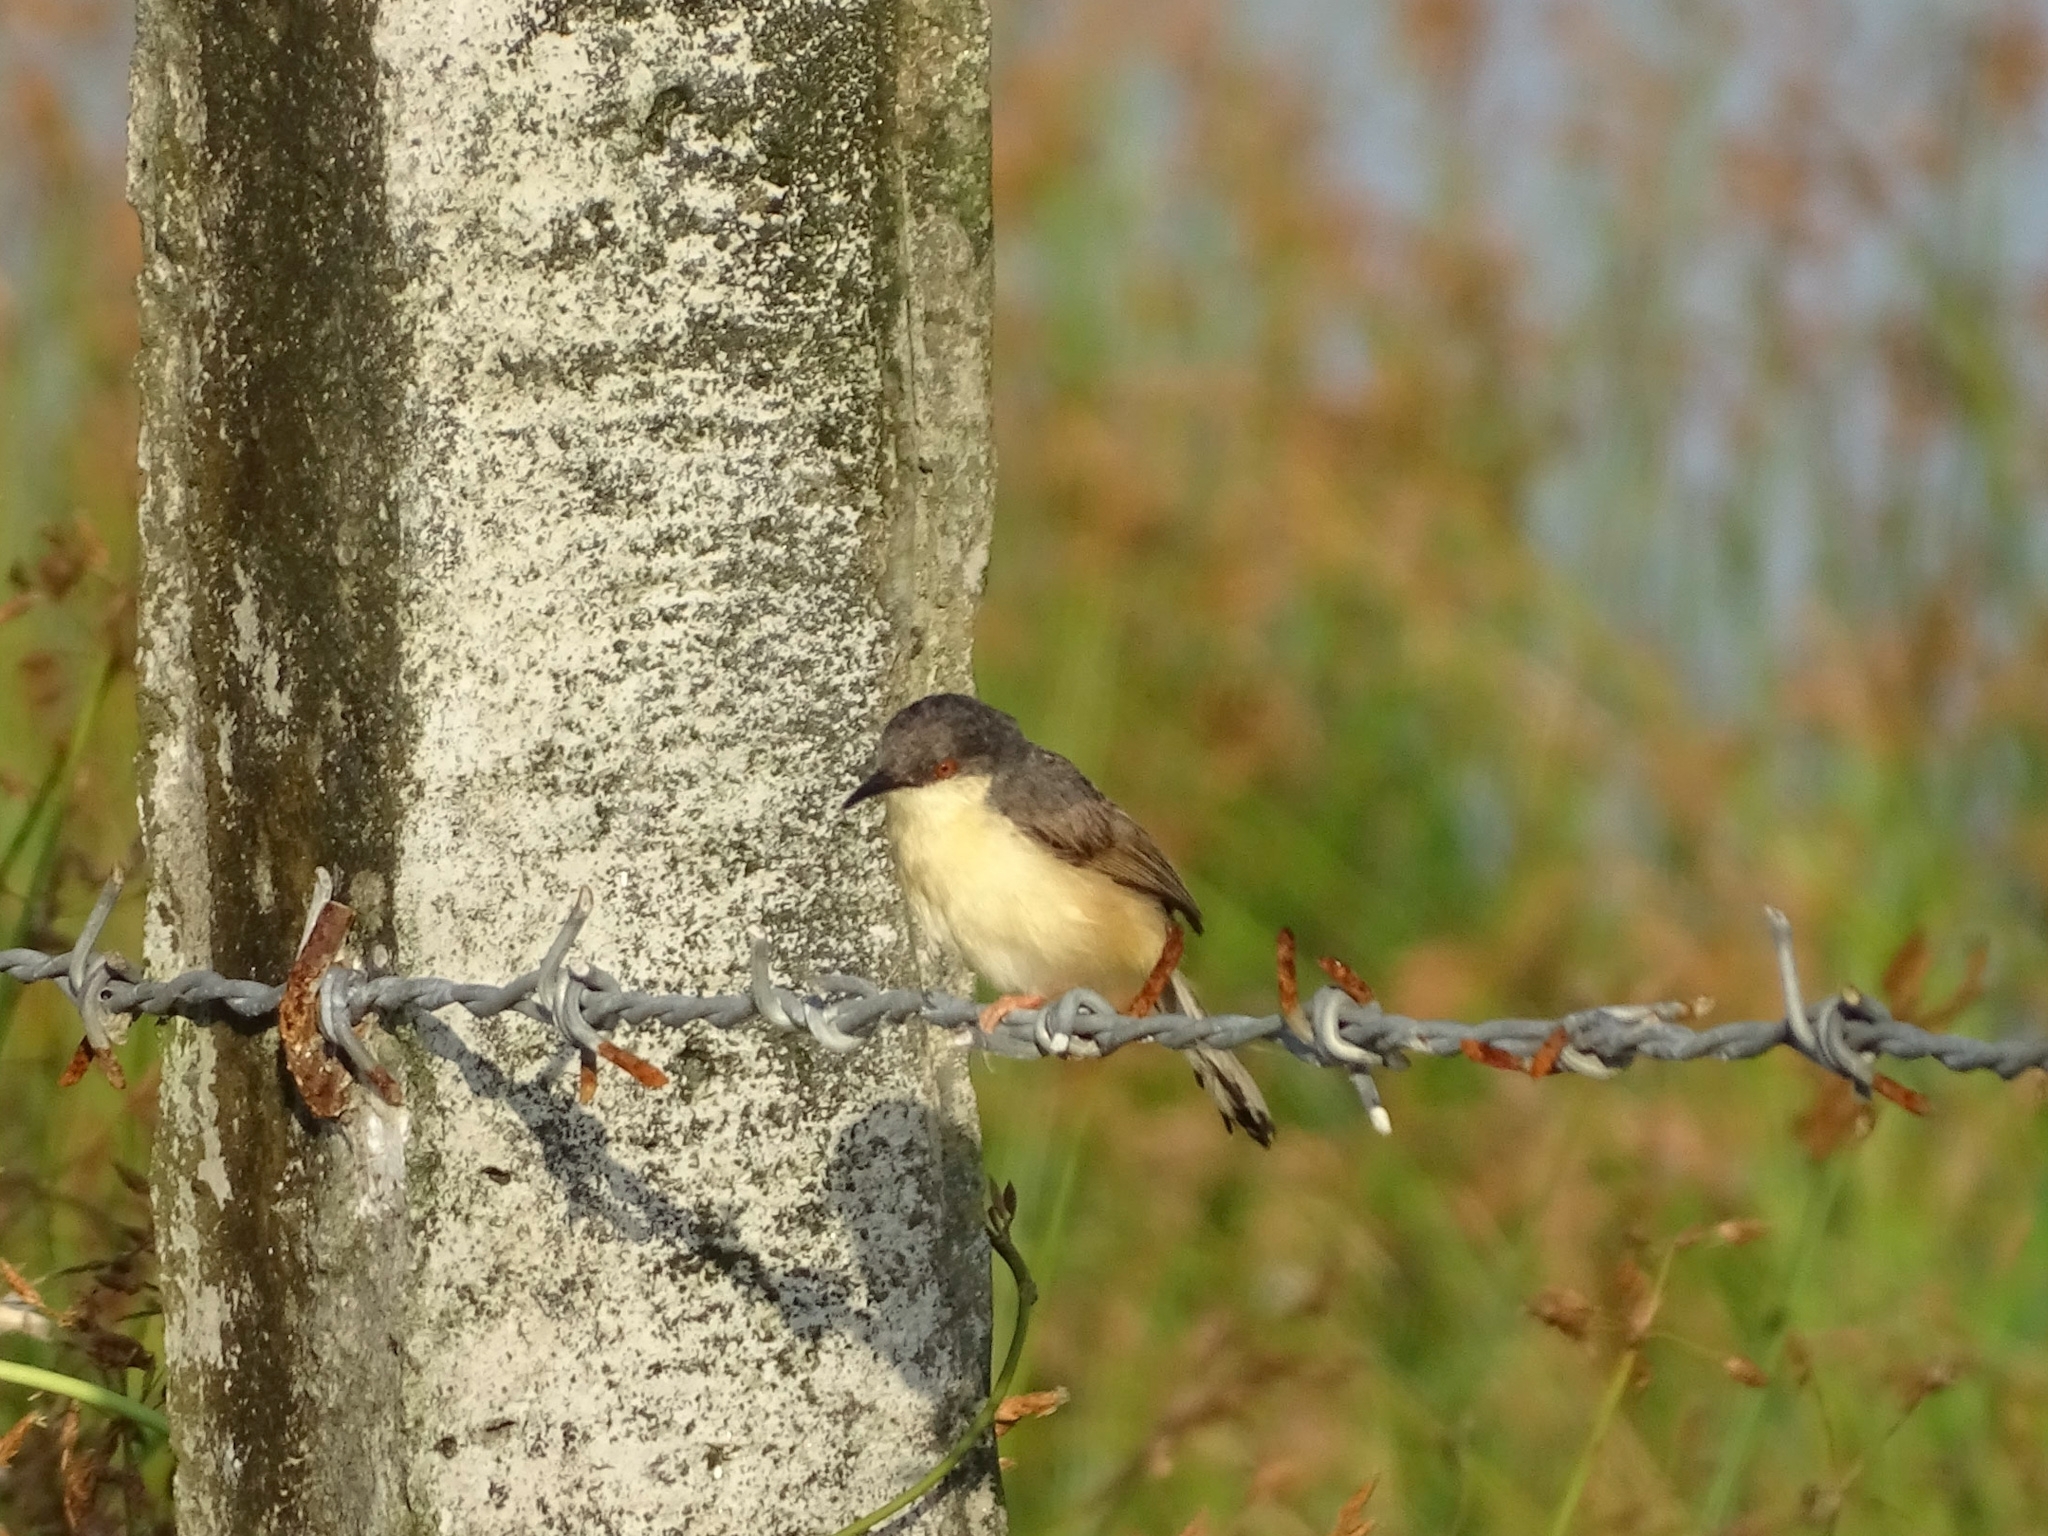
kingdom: Animalia
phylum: Chordata
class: Aves
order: Passeriformes
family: Cisticolidae
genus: Prinia
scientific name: Prinia socialis
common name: Ashy prinia
